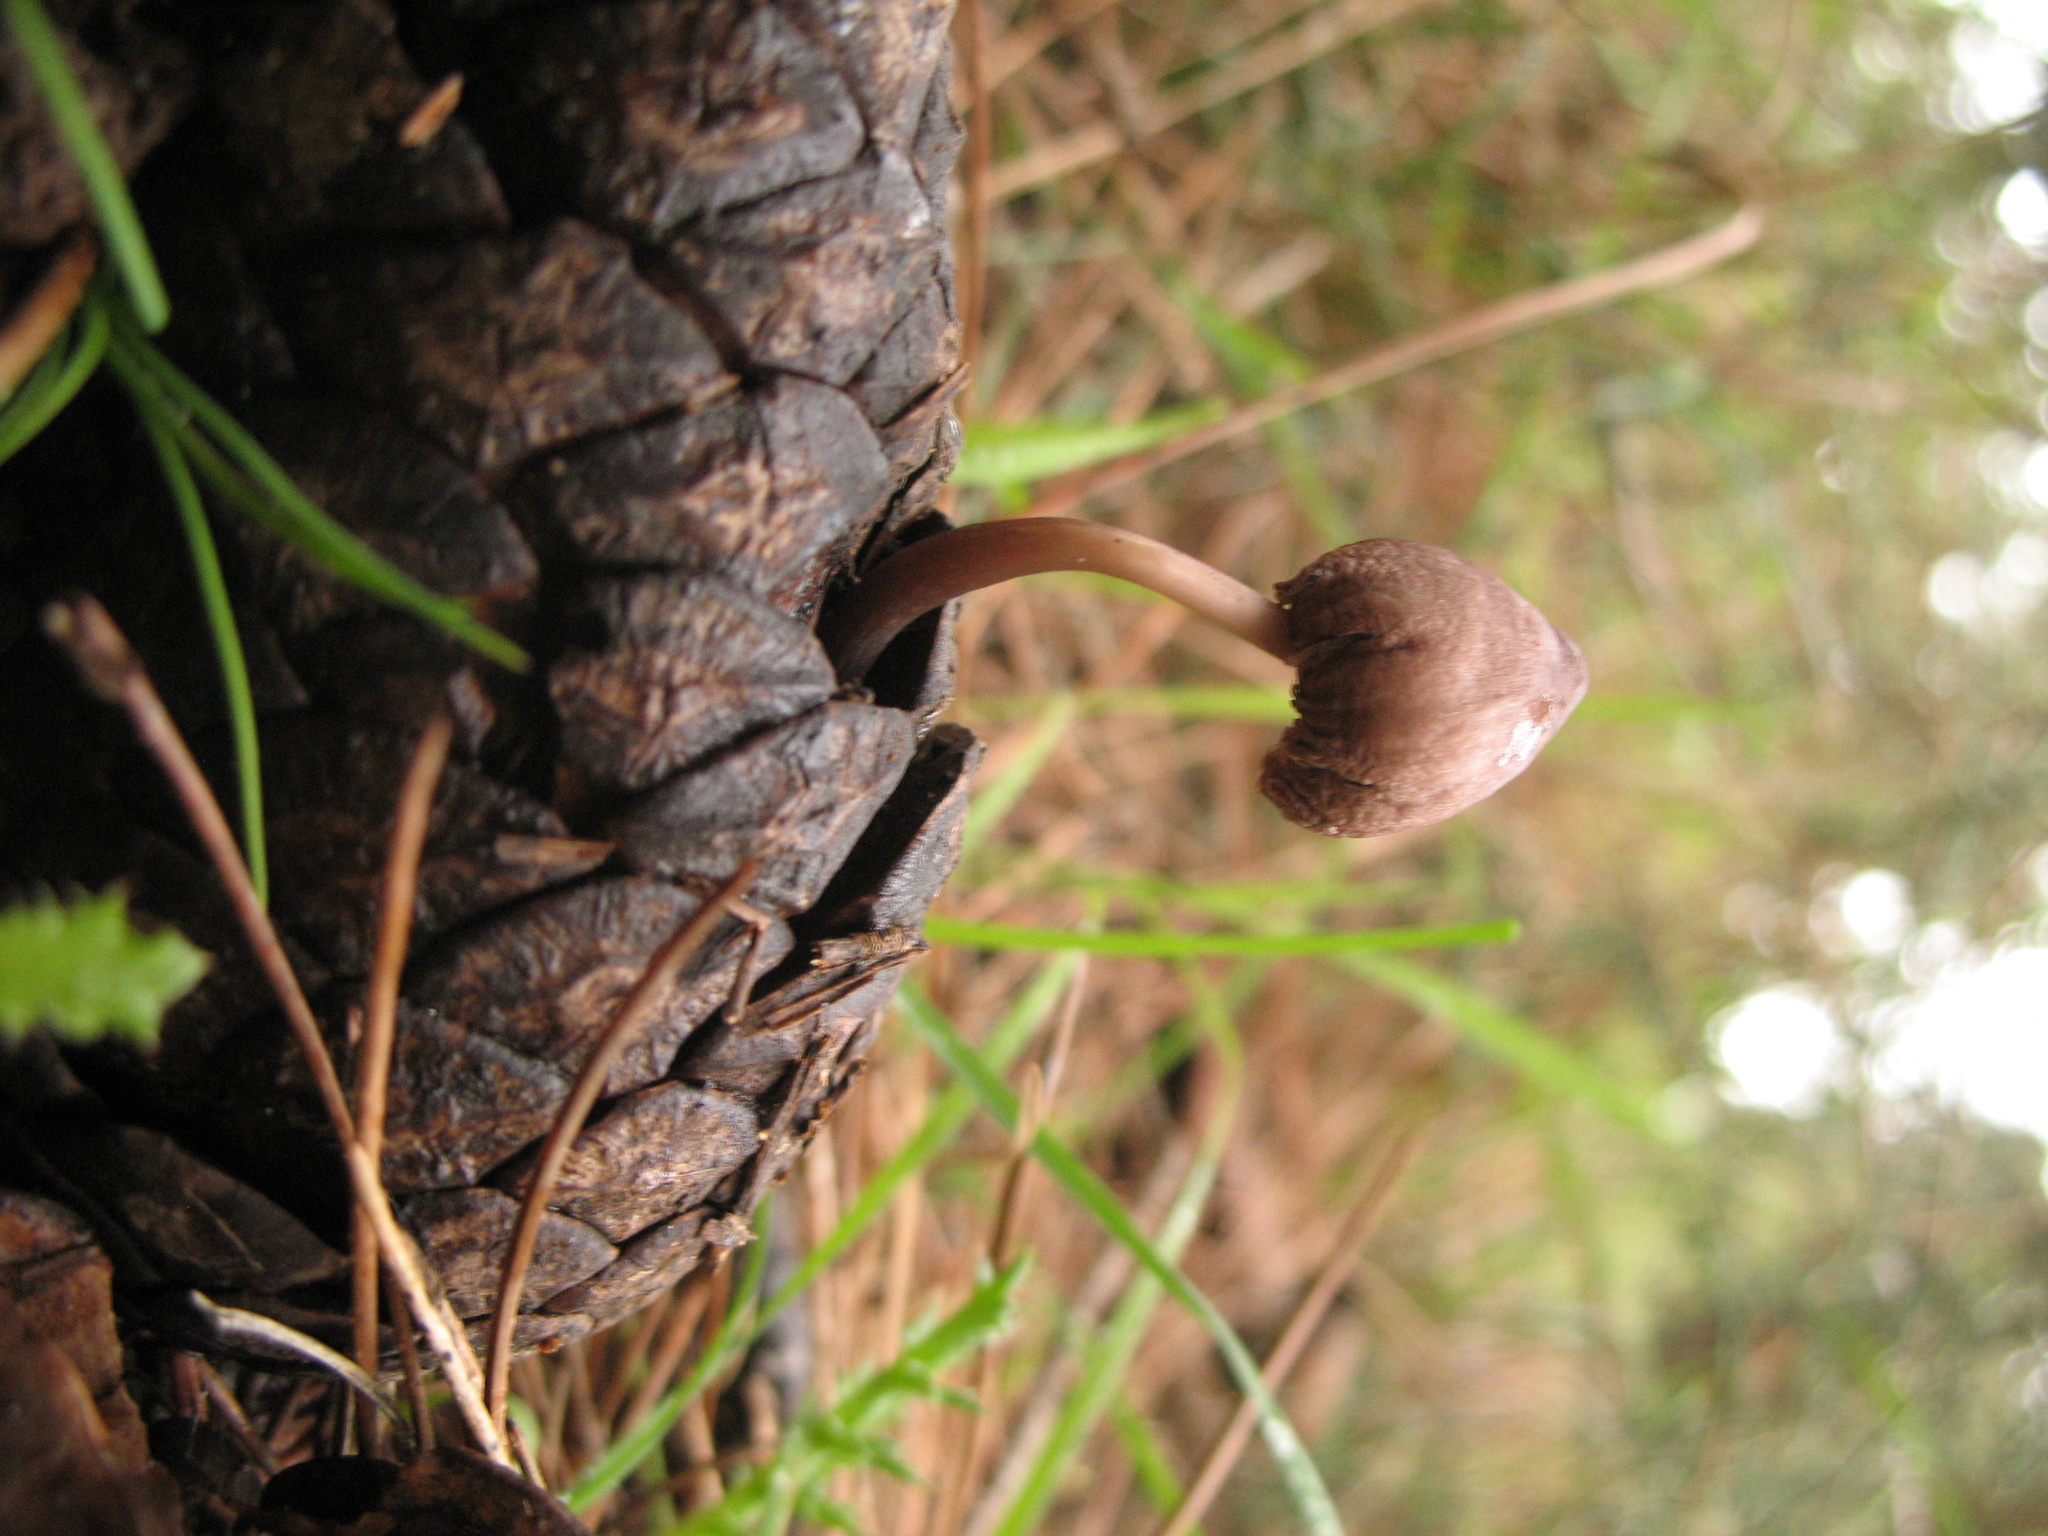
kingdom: Fungi
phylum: Basidiomycota
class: Agaricomycetes
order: Agaricales
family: Mycenaceae
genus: Mycena
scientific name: Mycena seynii
